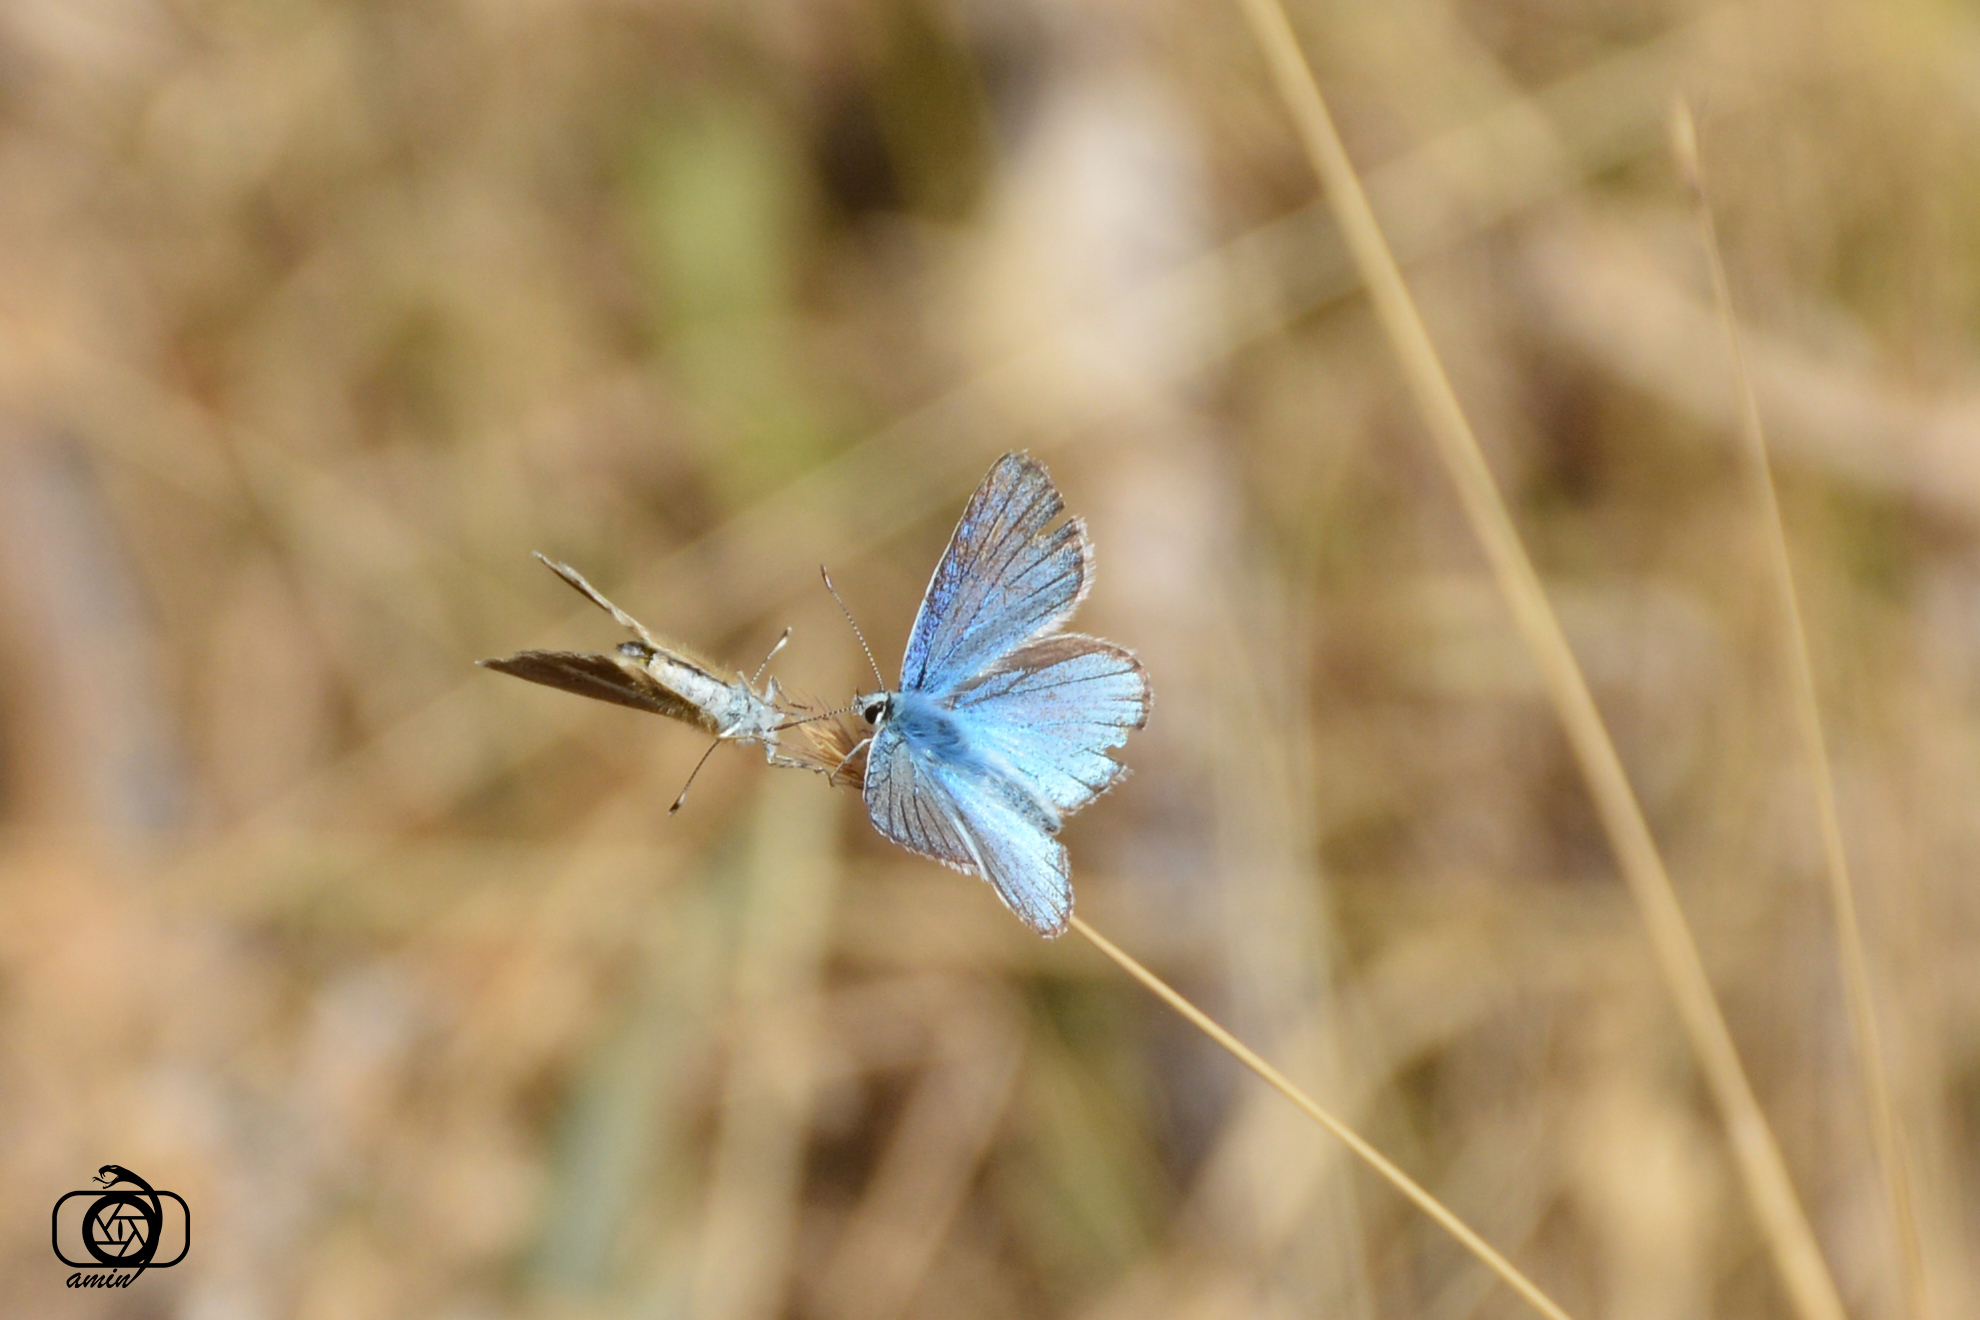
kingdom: Animalia
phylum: Arthropoda
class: Insecta
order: Lepidoptera
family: Lycaenidae
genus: Polyommatus
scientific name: Polyommatus vanensis
